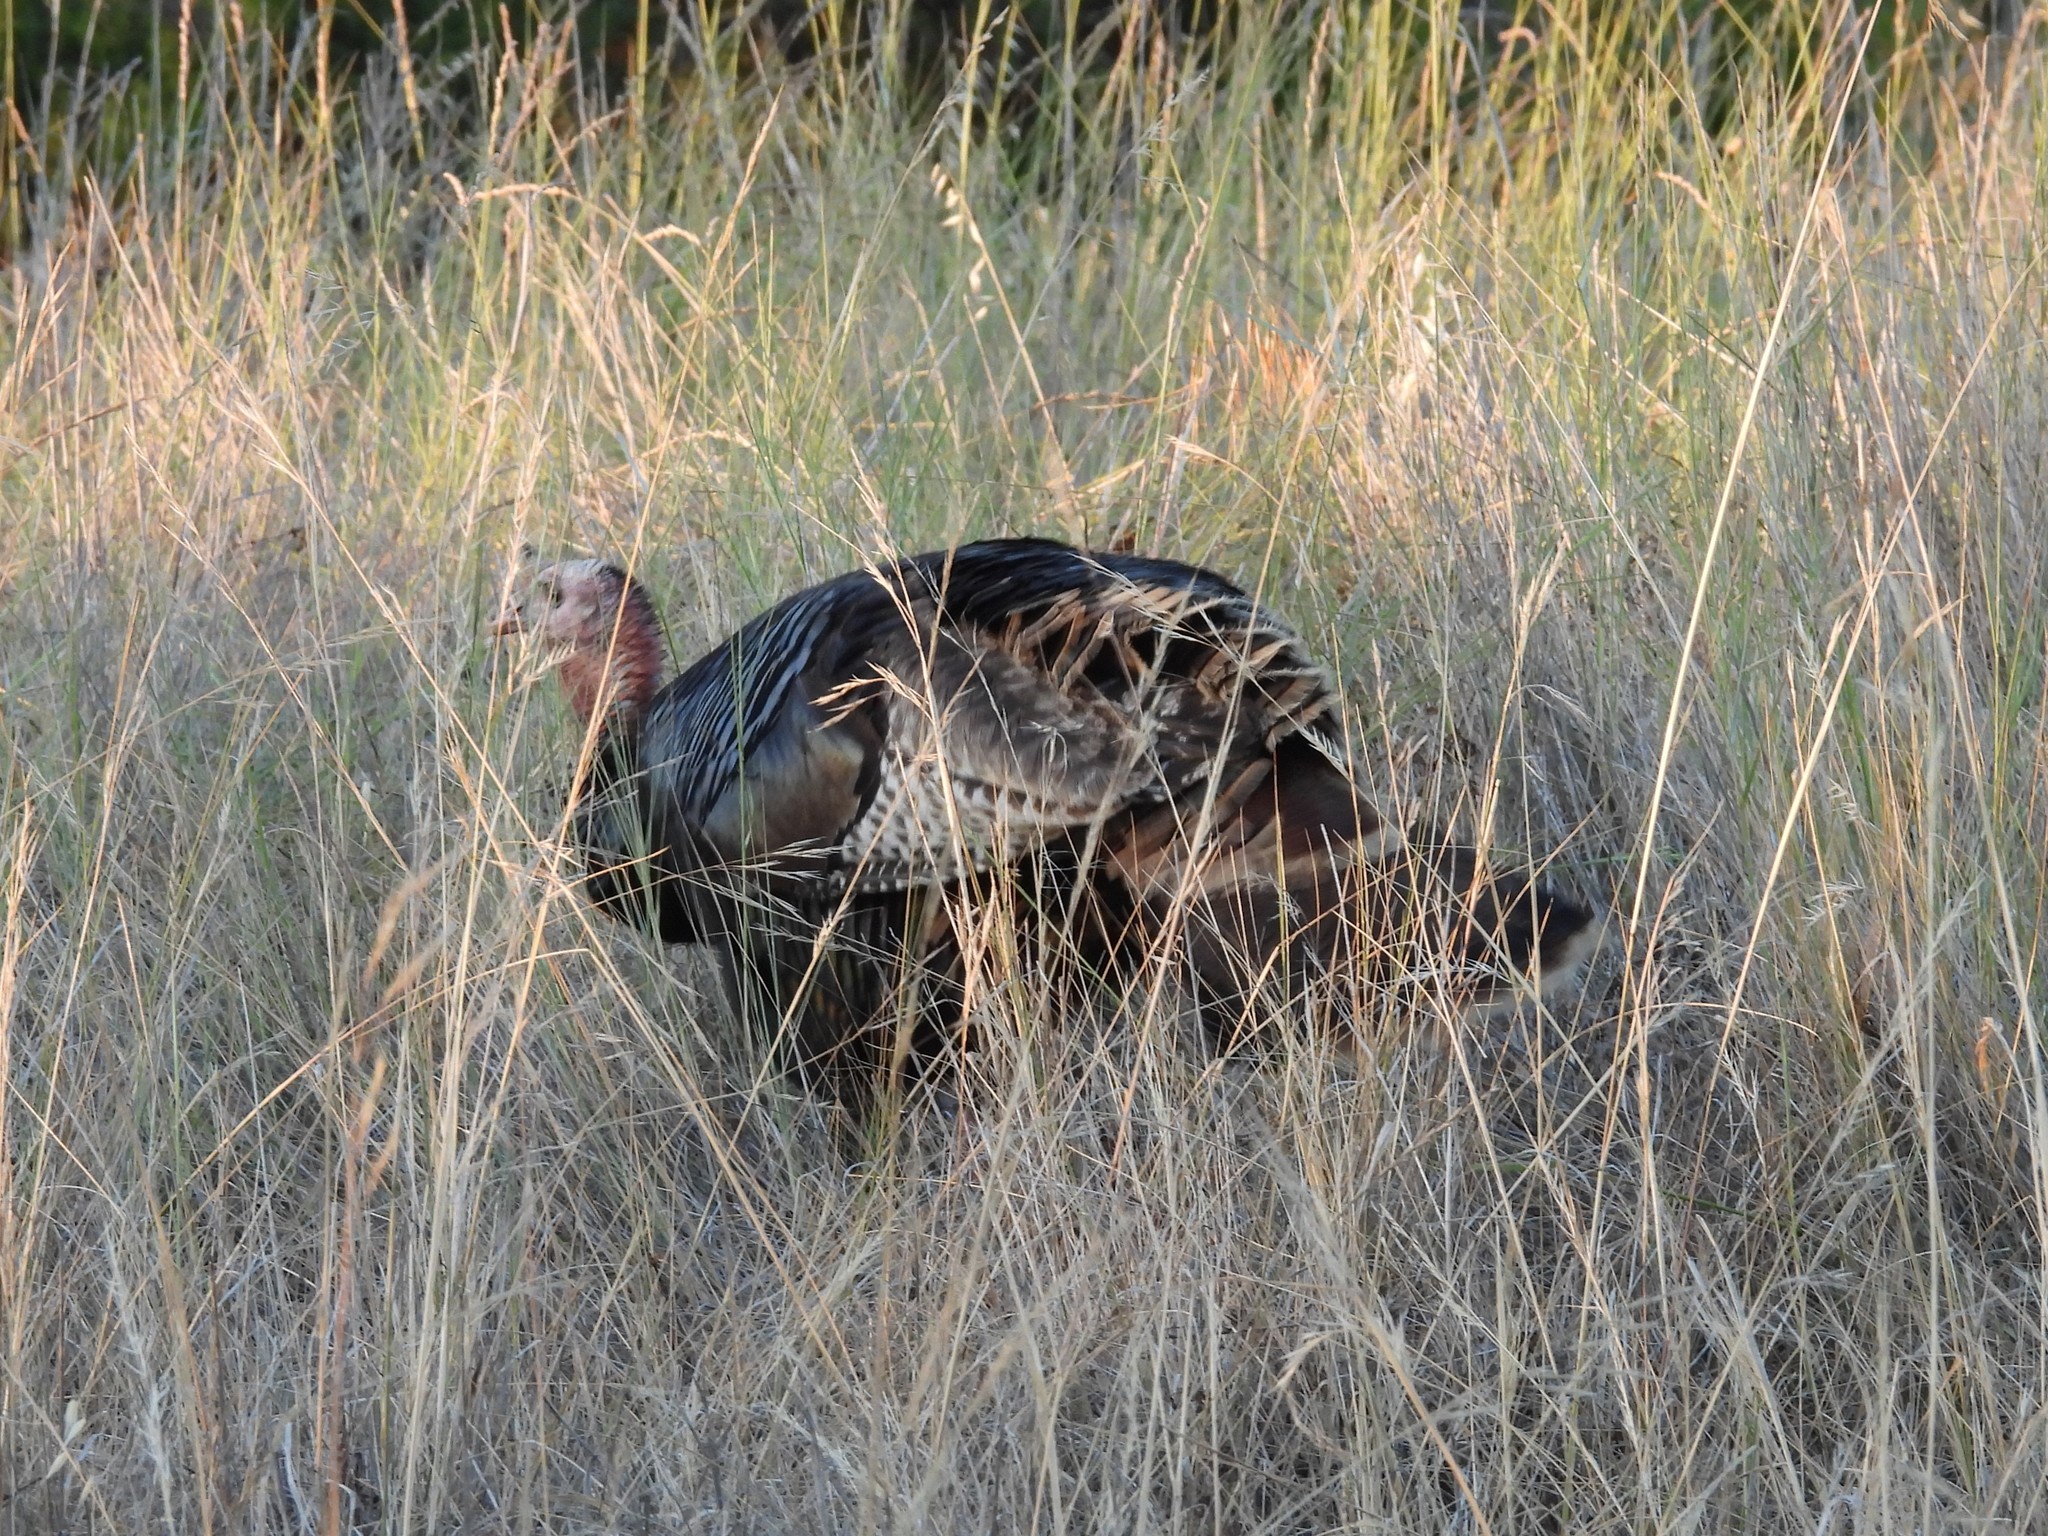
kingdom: Animalia
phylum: Chordata
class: Aves
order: Galliformes
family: Phasianidae
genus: Meleagris
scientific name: Meleagris gallopavo
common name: Wild turkey
